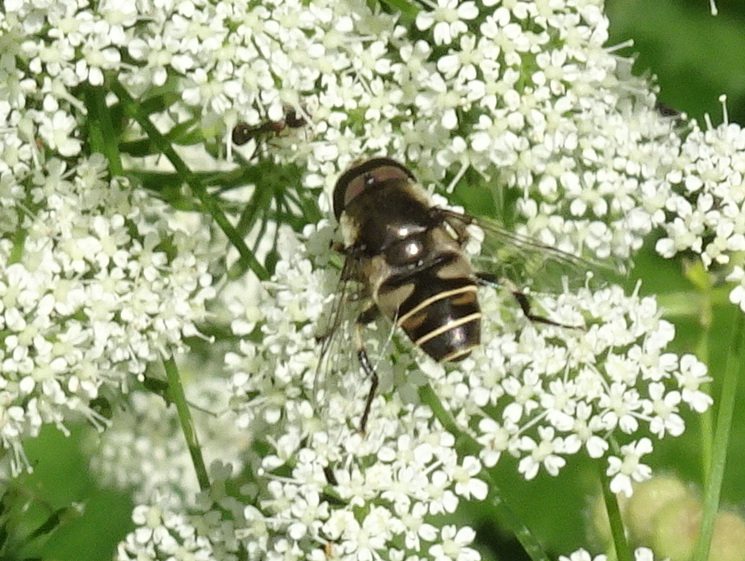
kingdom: Animalia
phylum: Arthropoda
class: Insecta
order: Diptera
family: Syrphidae
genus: Eristalis
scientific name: Eristalis dimidiata
